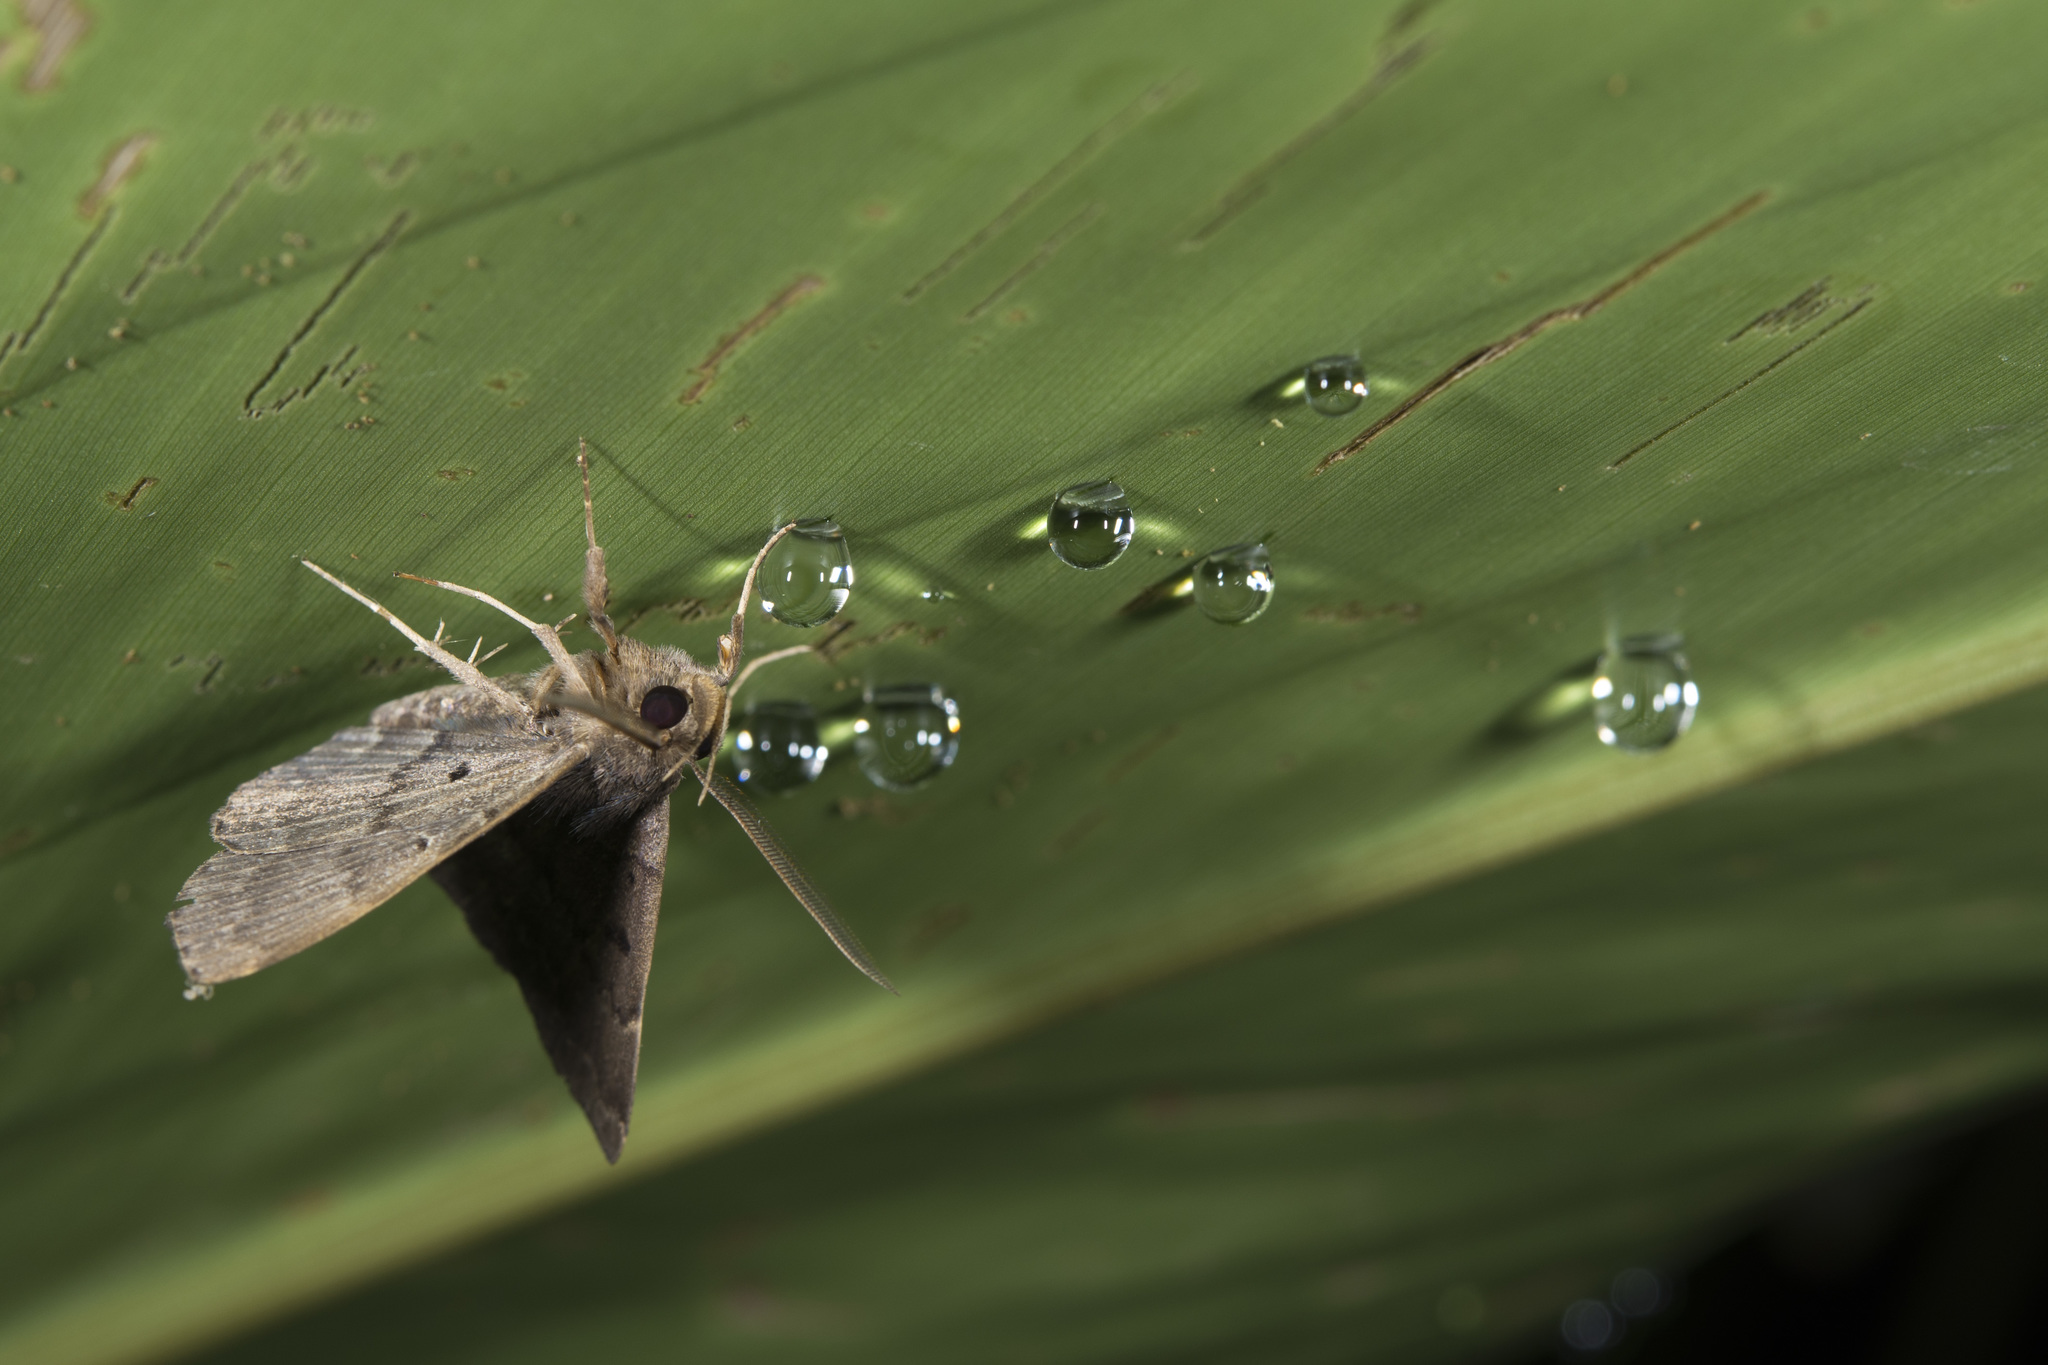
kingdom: Animalia
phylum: Arthropoda
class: Insecta
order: Lepidoptera
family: Erebidae
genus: Bocana
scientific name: Bocana manifestalis
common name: Moth
